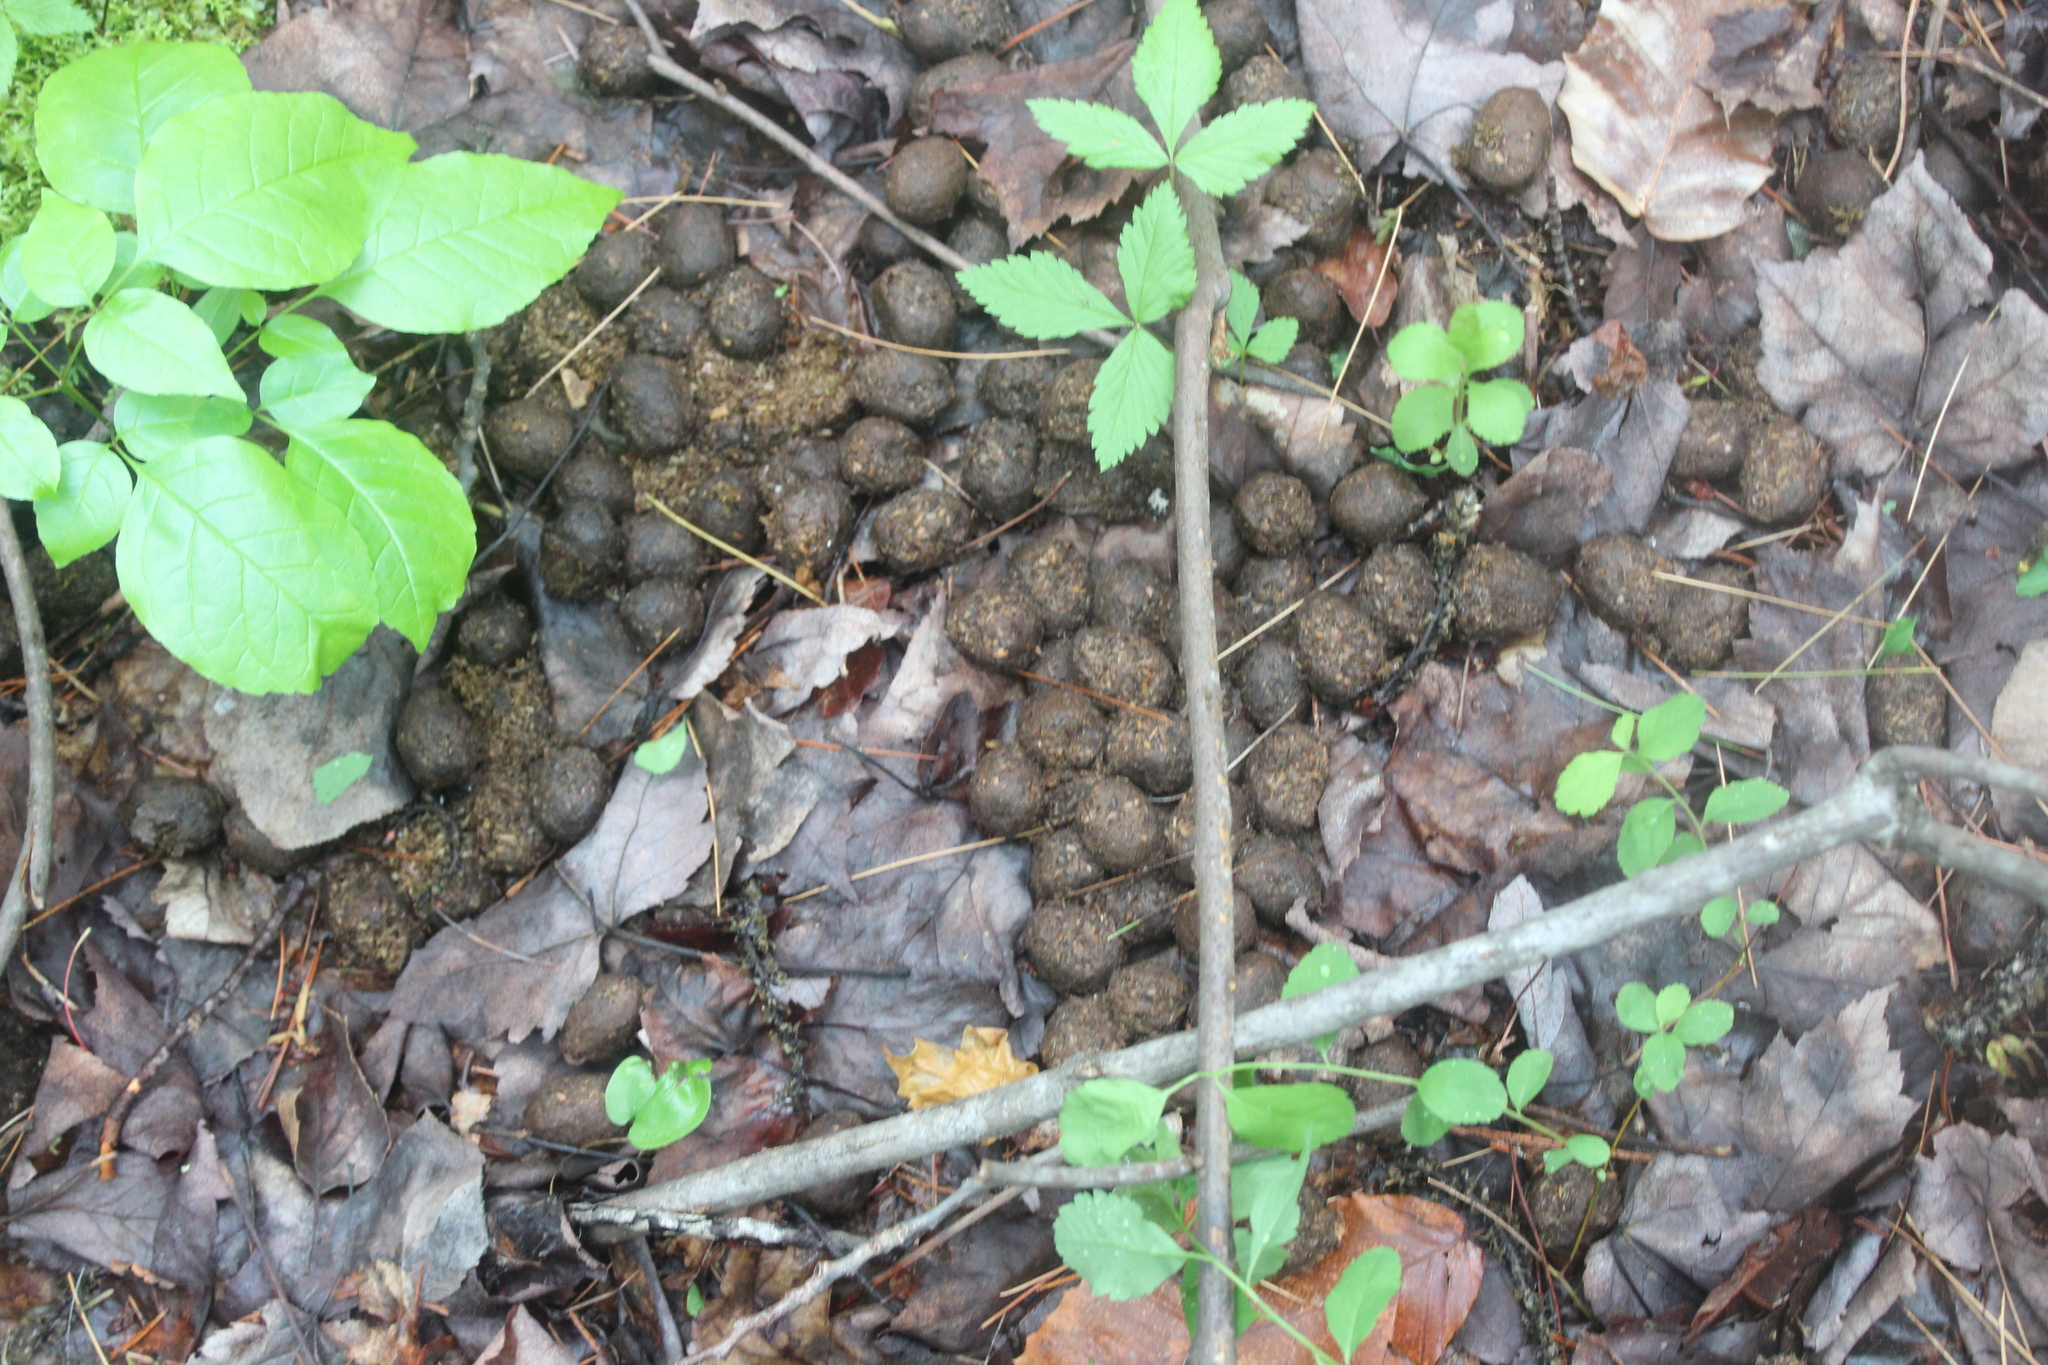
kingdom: Animalia
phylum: Chordata
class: Mammalia
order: Artiodactyla
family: Cervidae
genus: Alces
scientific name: Alces alces
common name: Moose
